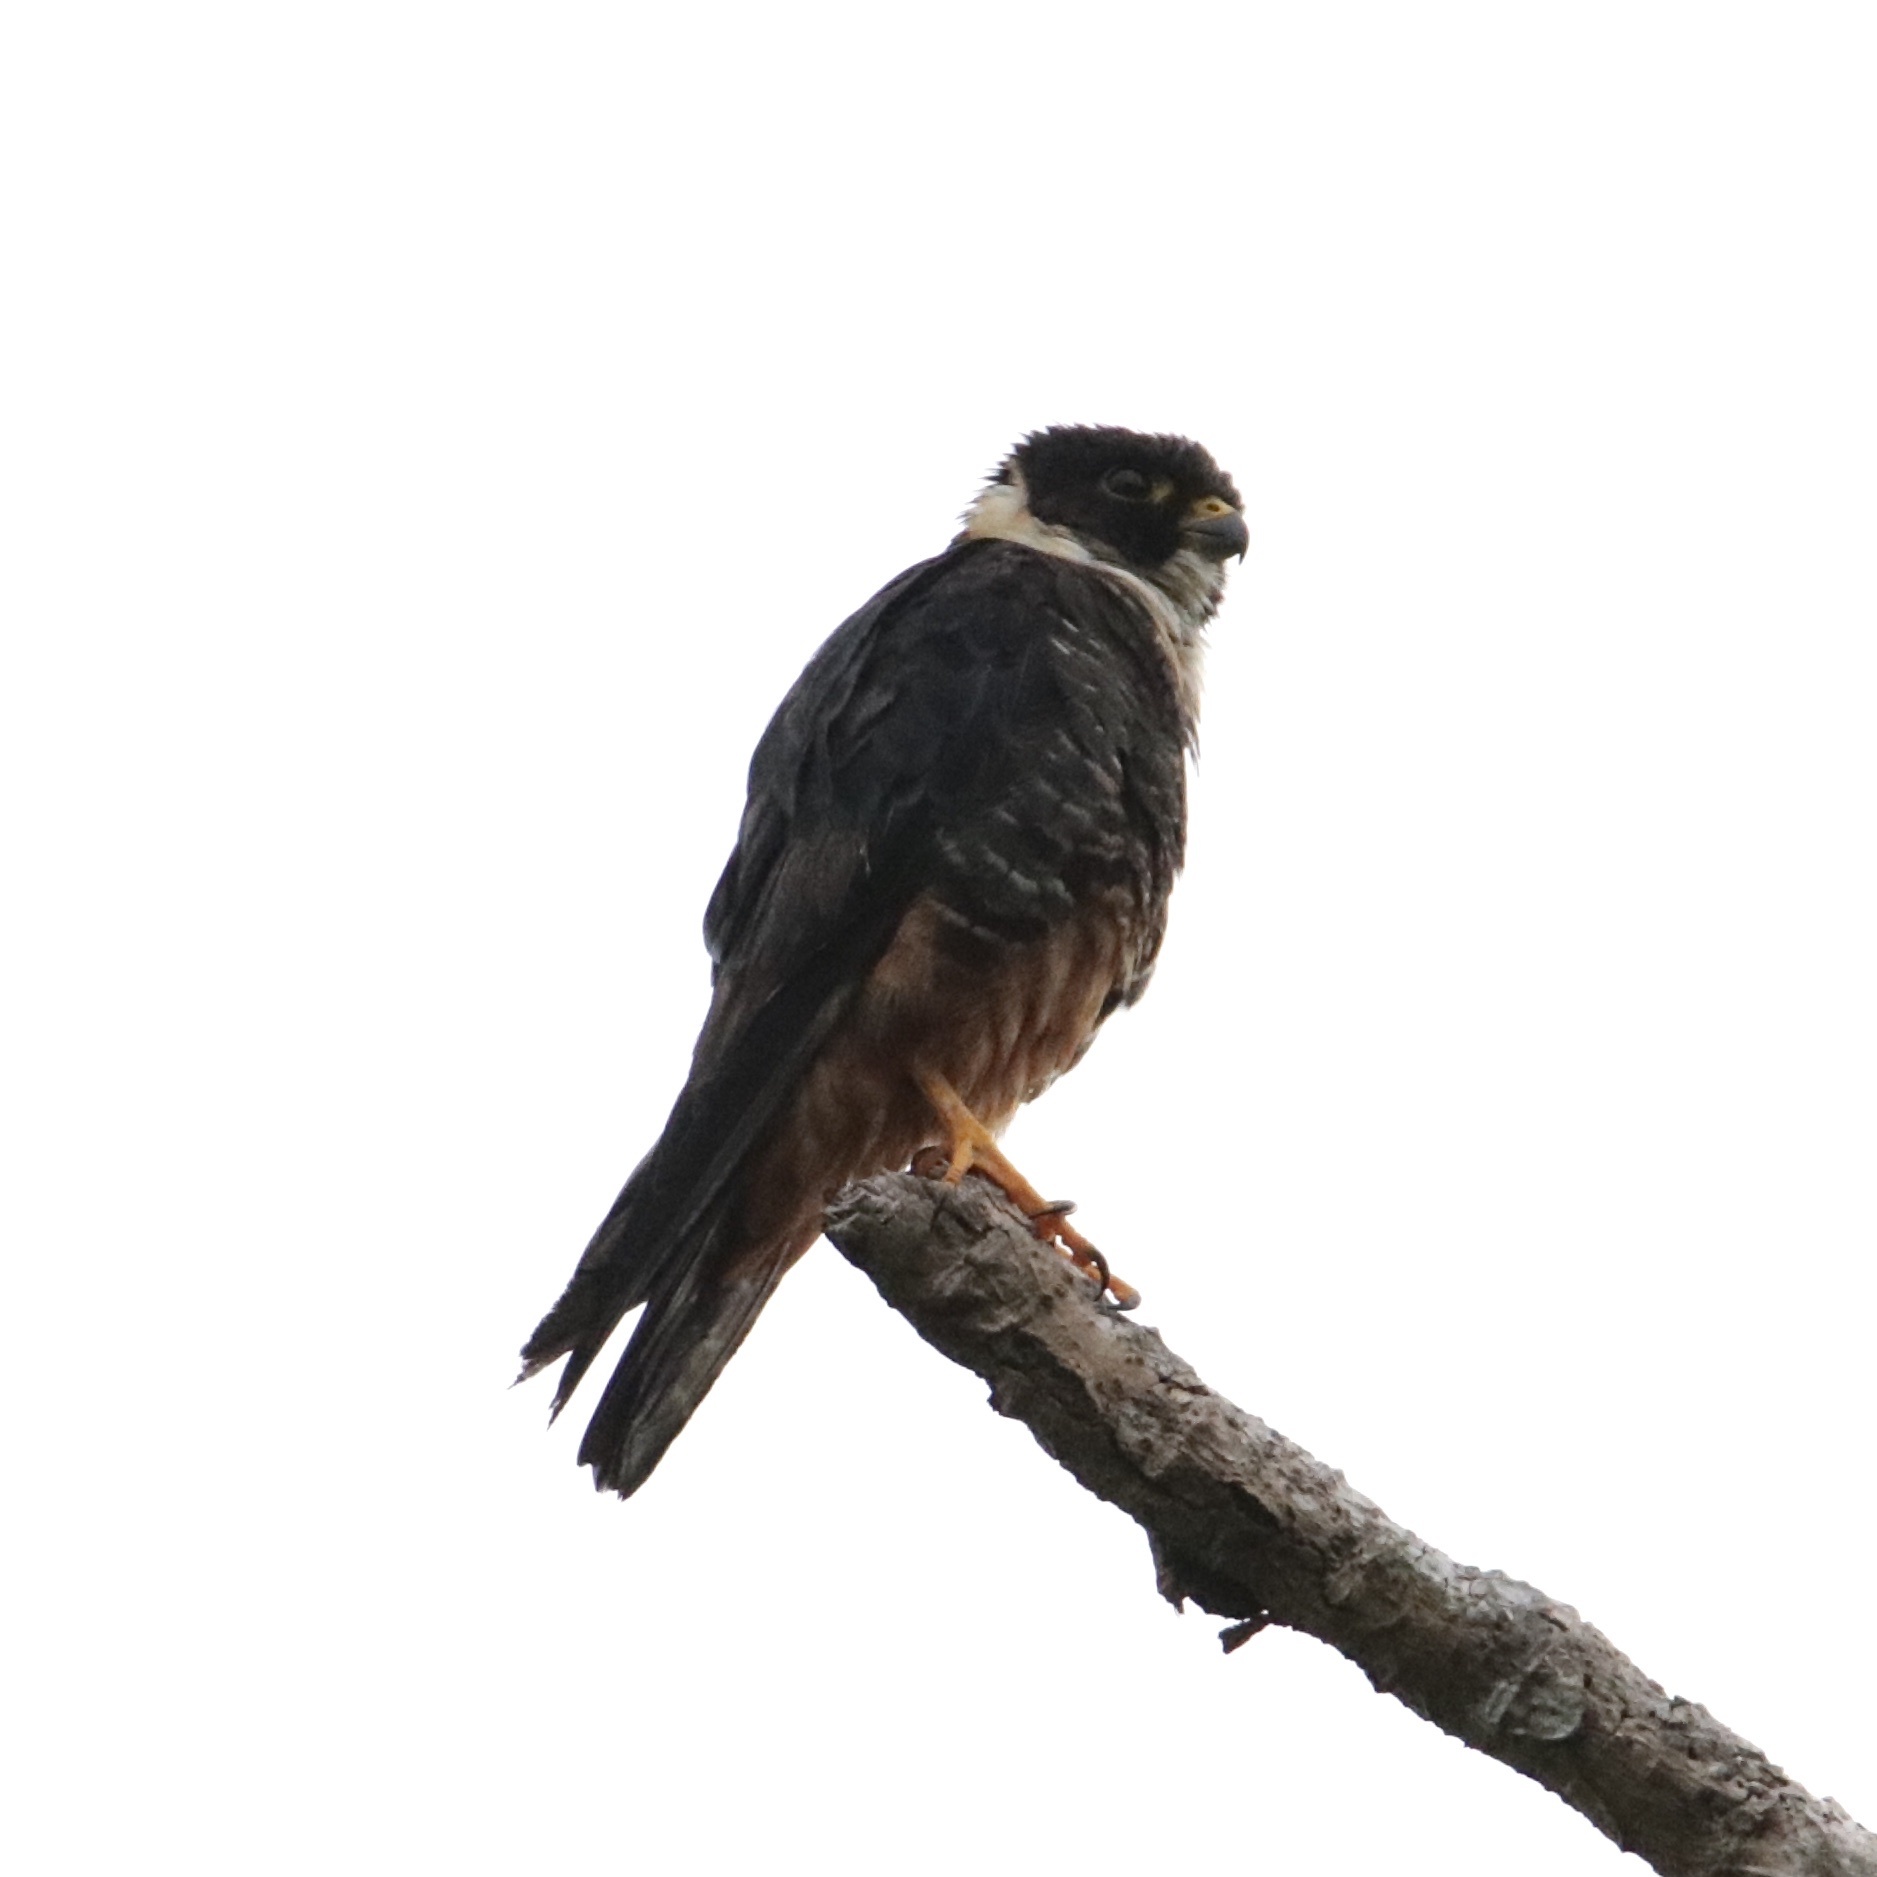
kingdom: Animalia
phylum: Chordata
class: Aves
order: Falconiformes
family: Falconidae
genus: Falco
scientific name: Falco rufigularis
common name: Bat falcon
